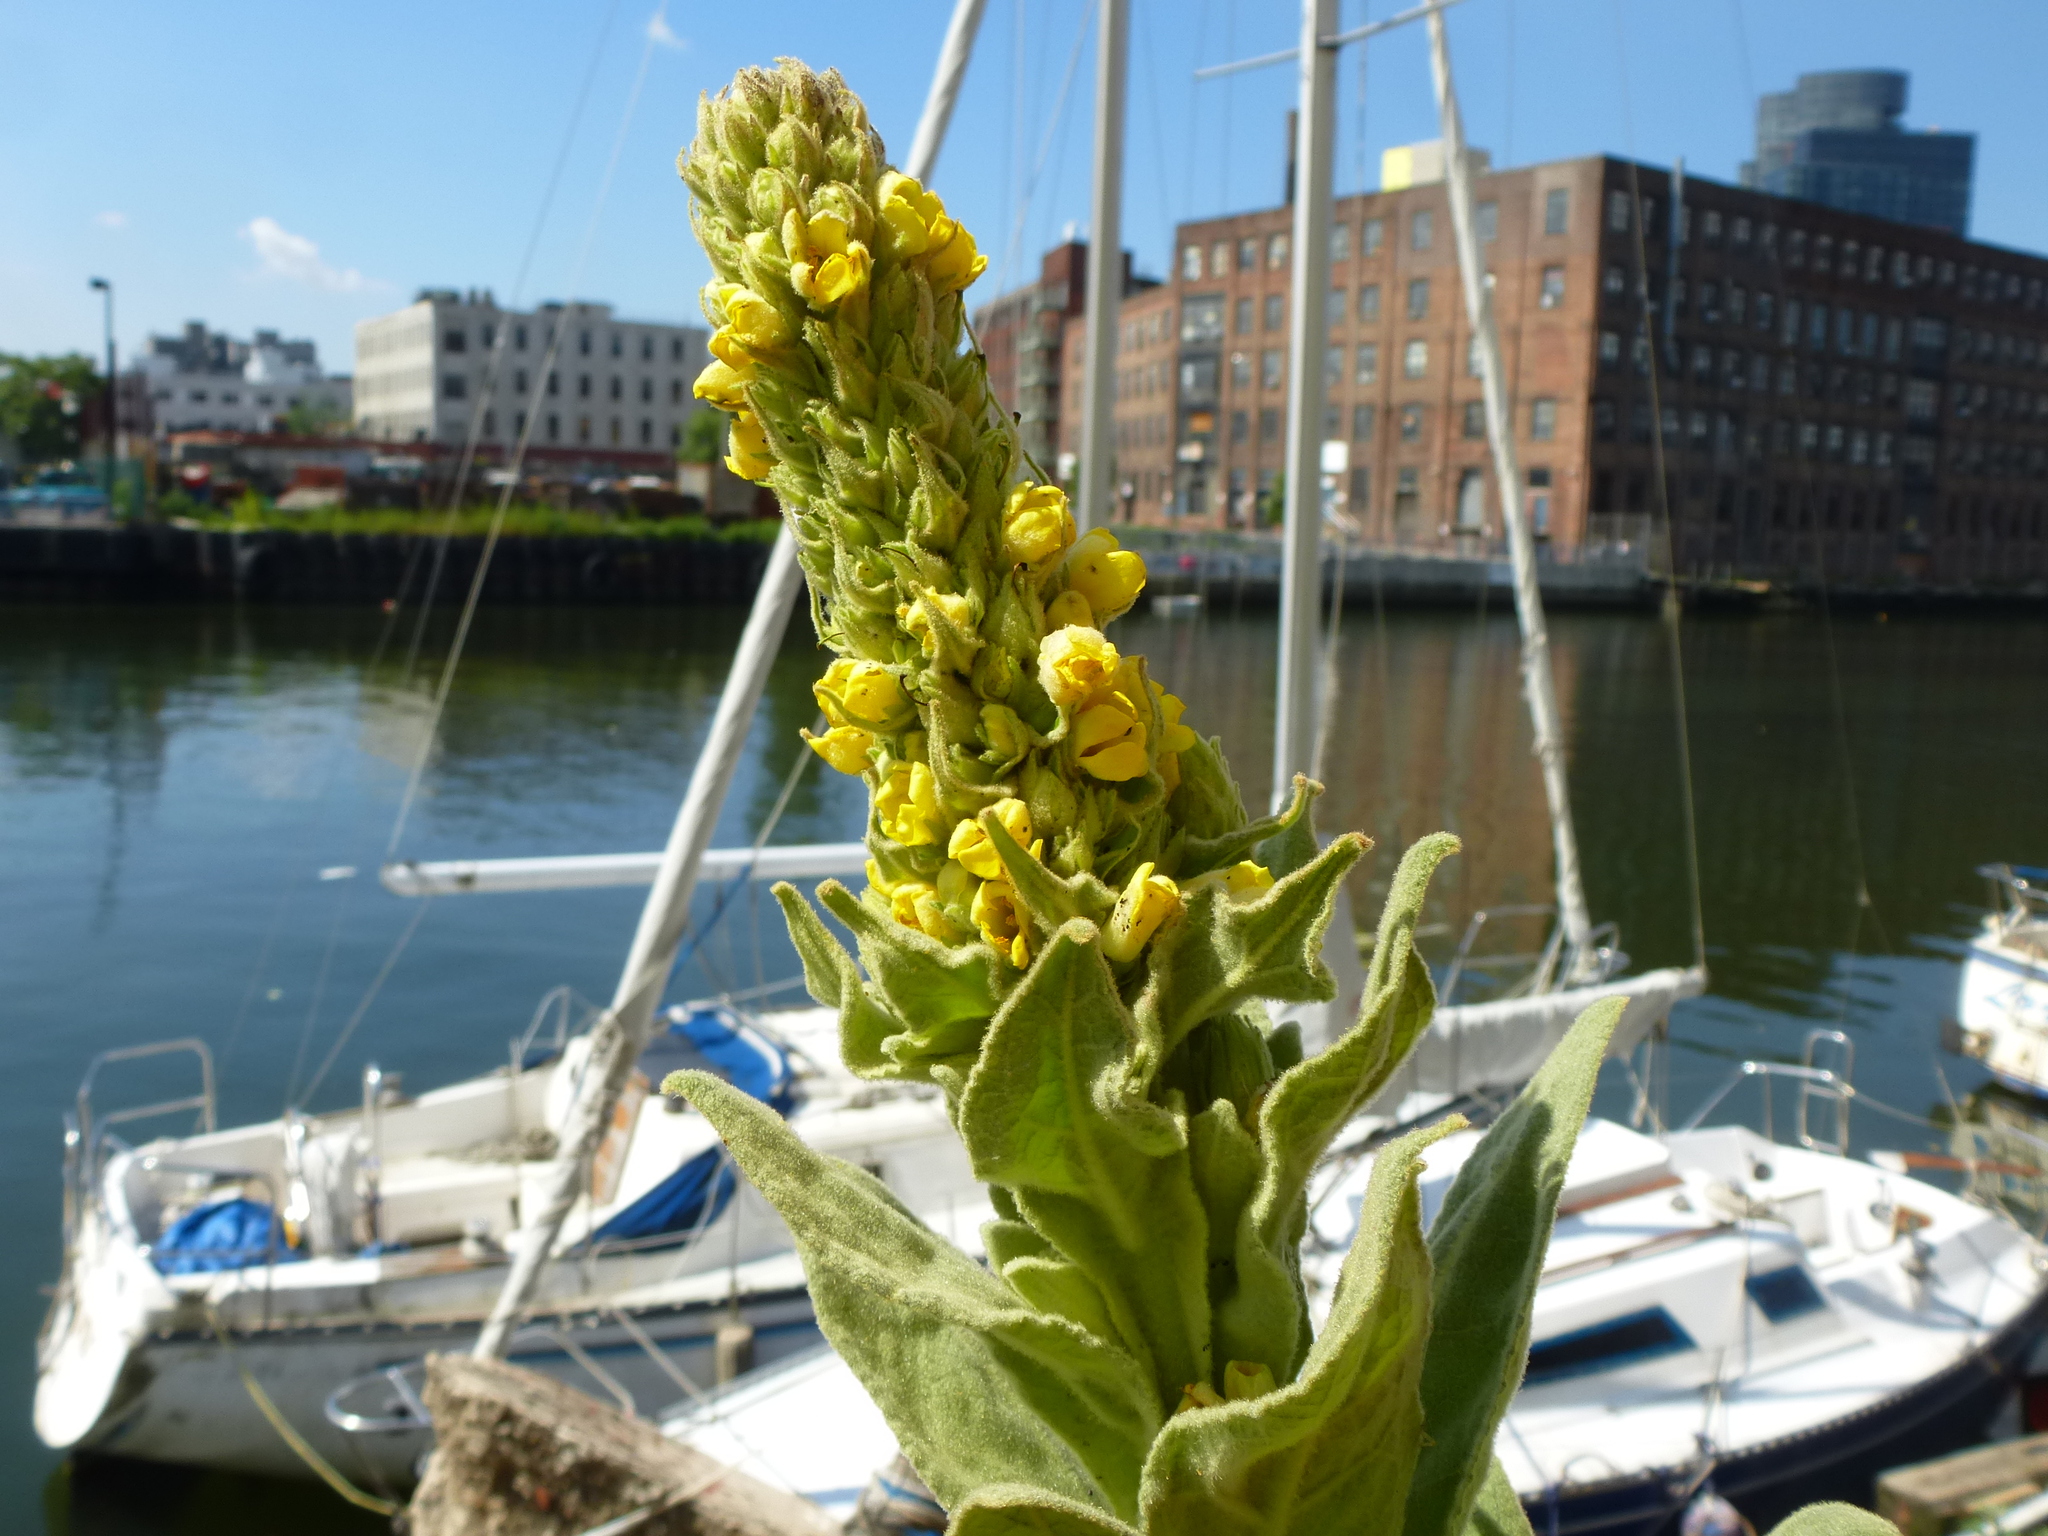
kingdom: Plantae
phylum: Tracheophyta
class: Magnoliopsida
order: Lamiales
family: Scrophulariaceae
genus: Verbascum
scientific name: Verbascum thapsus
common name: Common mullein
